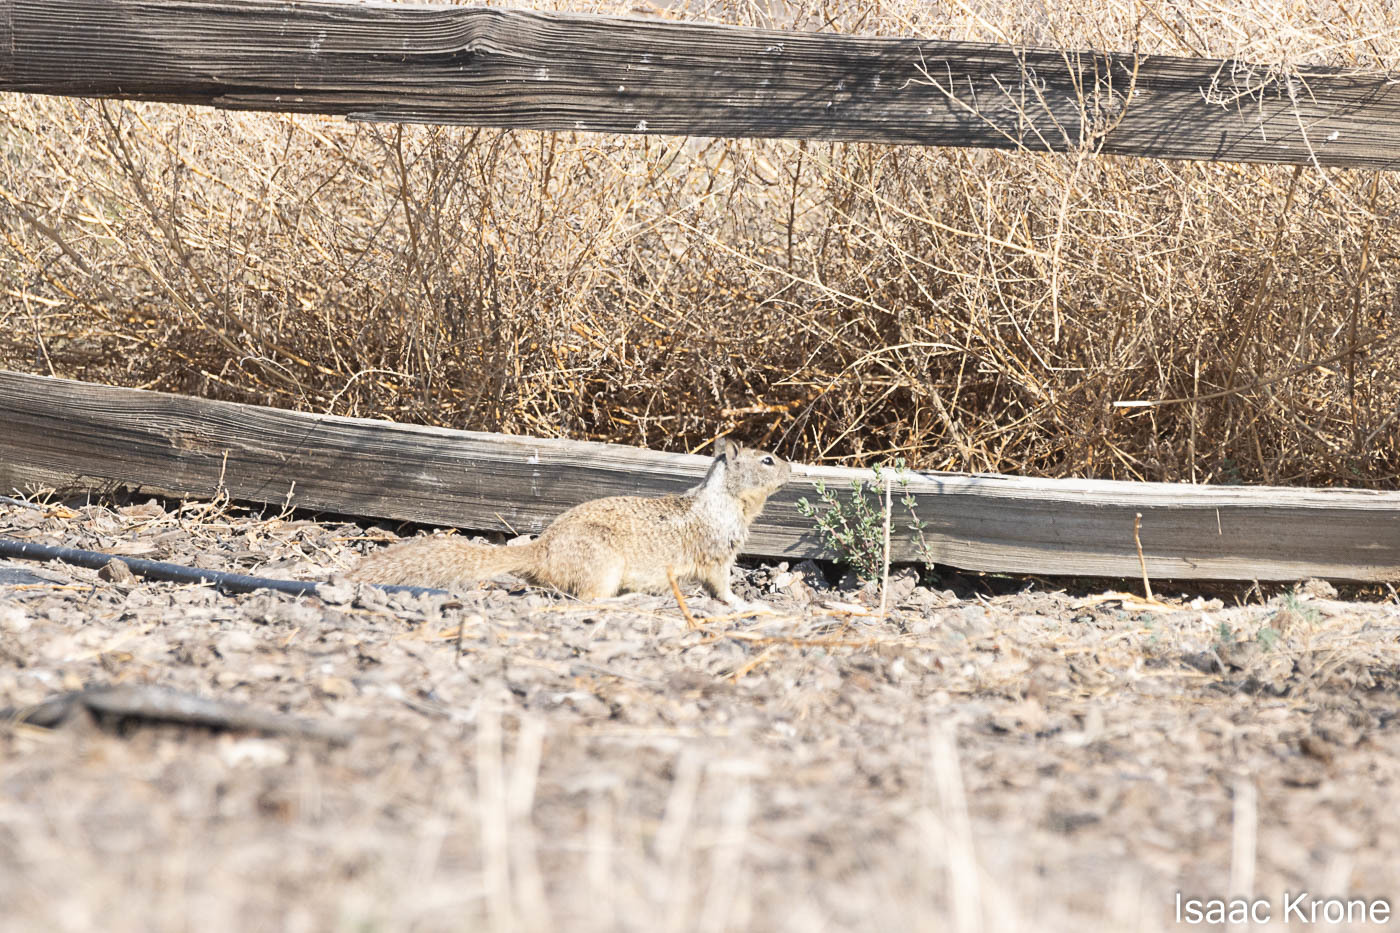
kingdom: Animalia
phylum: Chordata
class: Mammalia
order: Rodentia
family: Sciuridae
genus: Otospermophilus
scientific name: Otospermophilus beecheyi
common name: California ground squirrel
